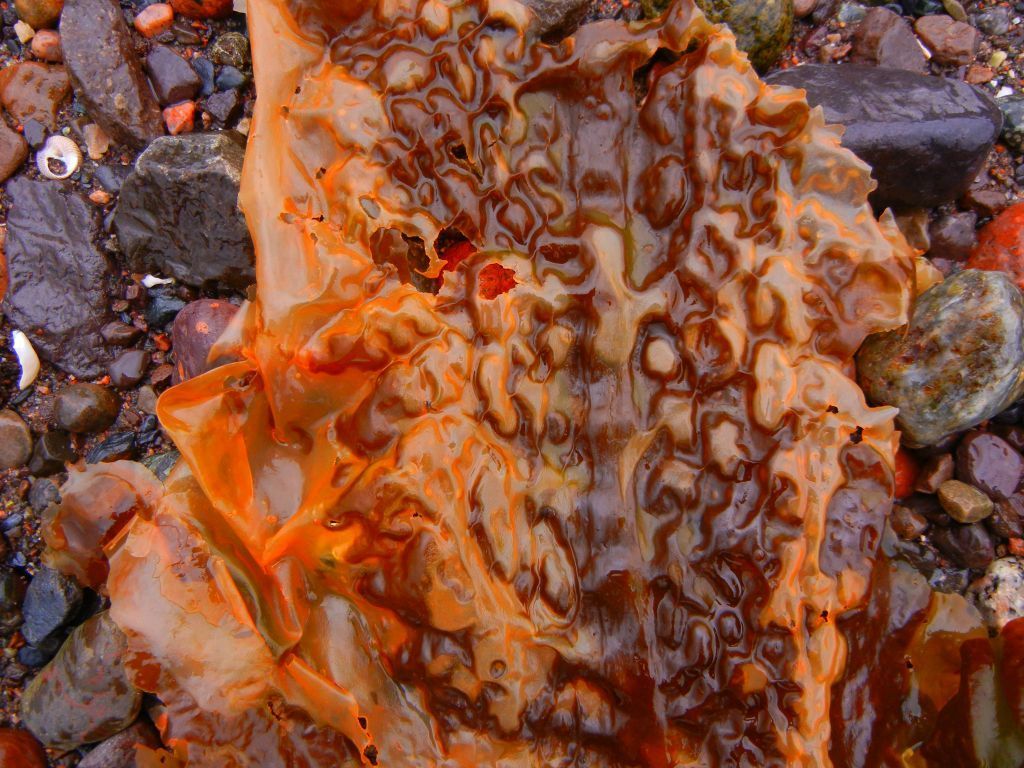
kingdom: Chromista
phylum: Ochrophyta
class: Phaeophyceae
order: Laminariales
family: Laminariaceae
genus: Saccharina
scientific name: Saccharina latissima
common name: Poor man's weather glass
